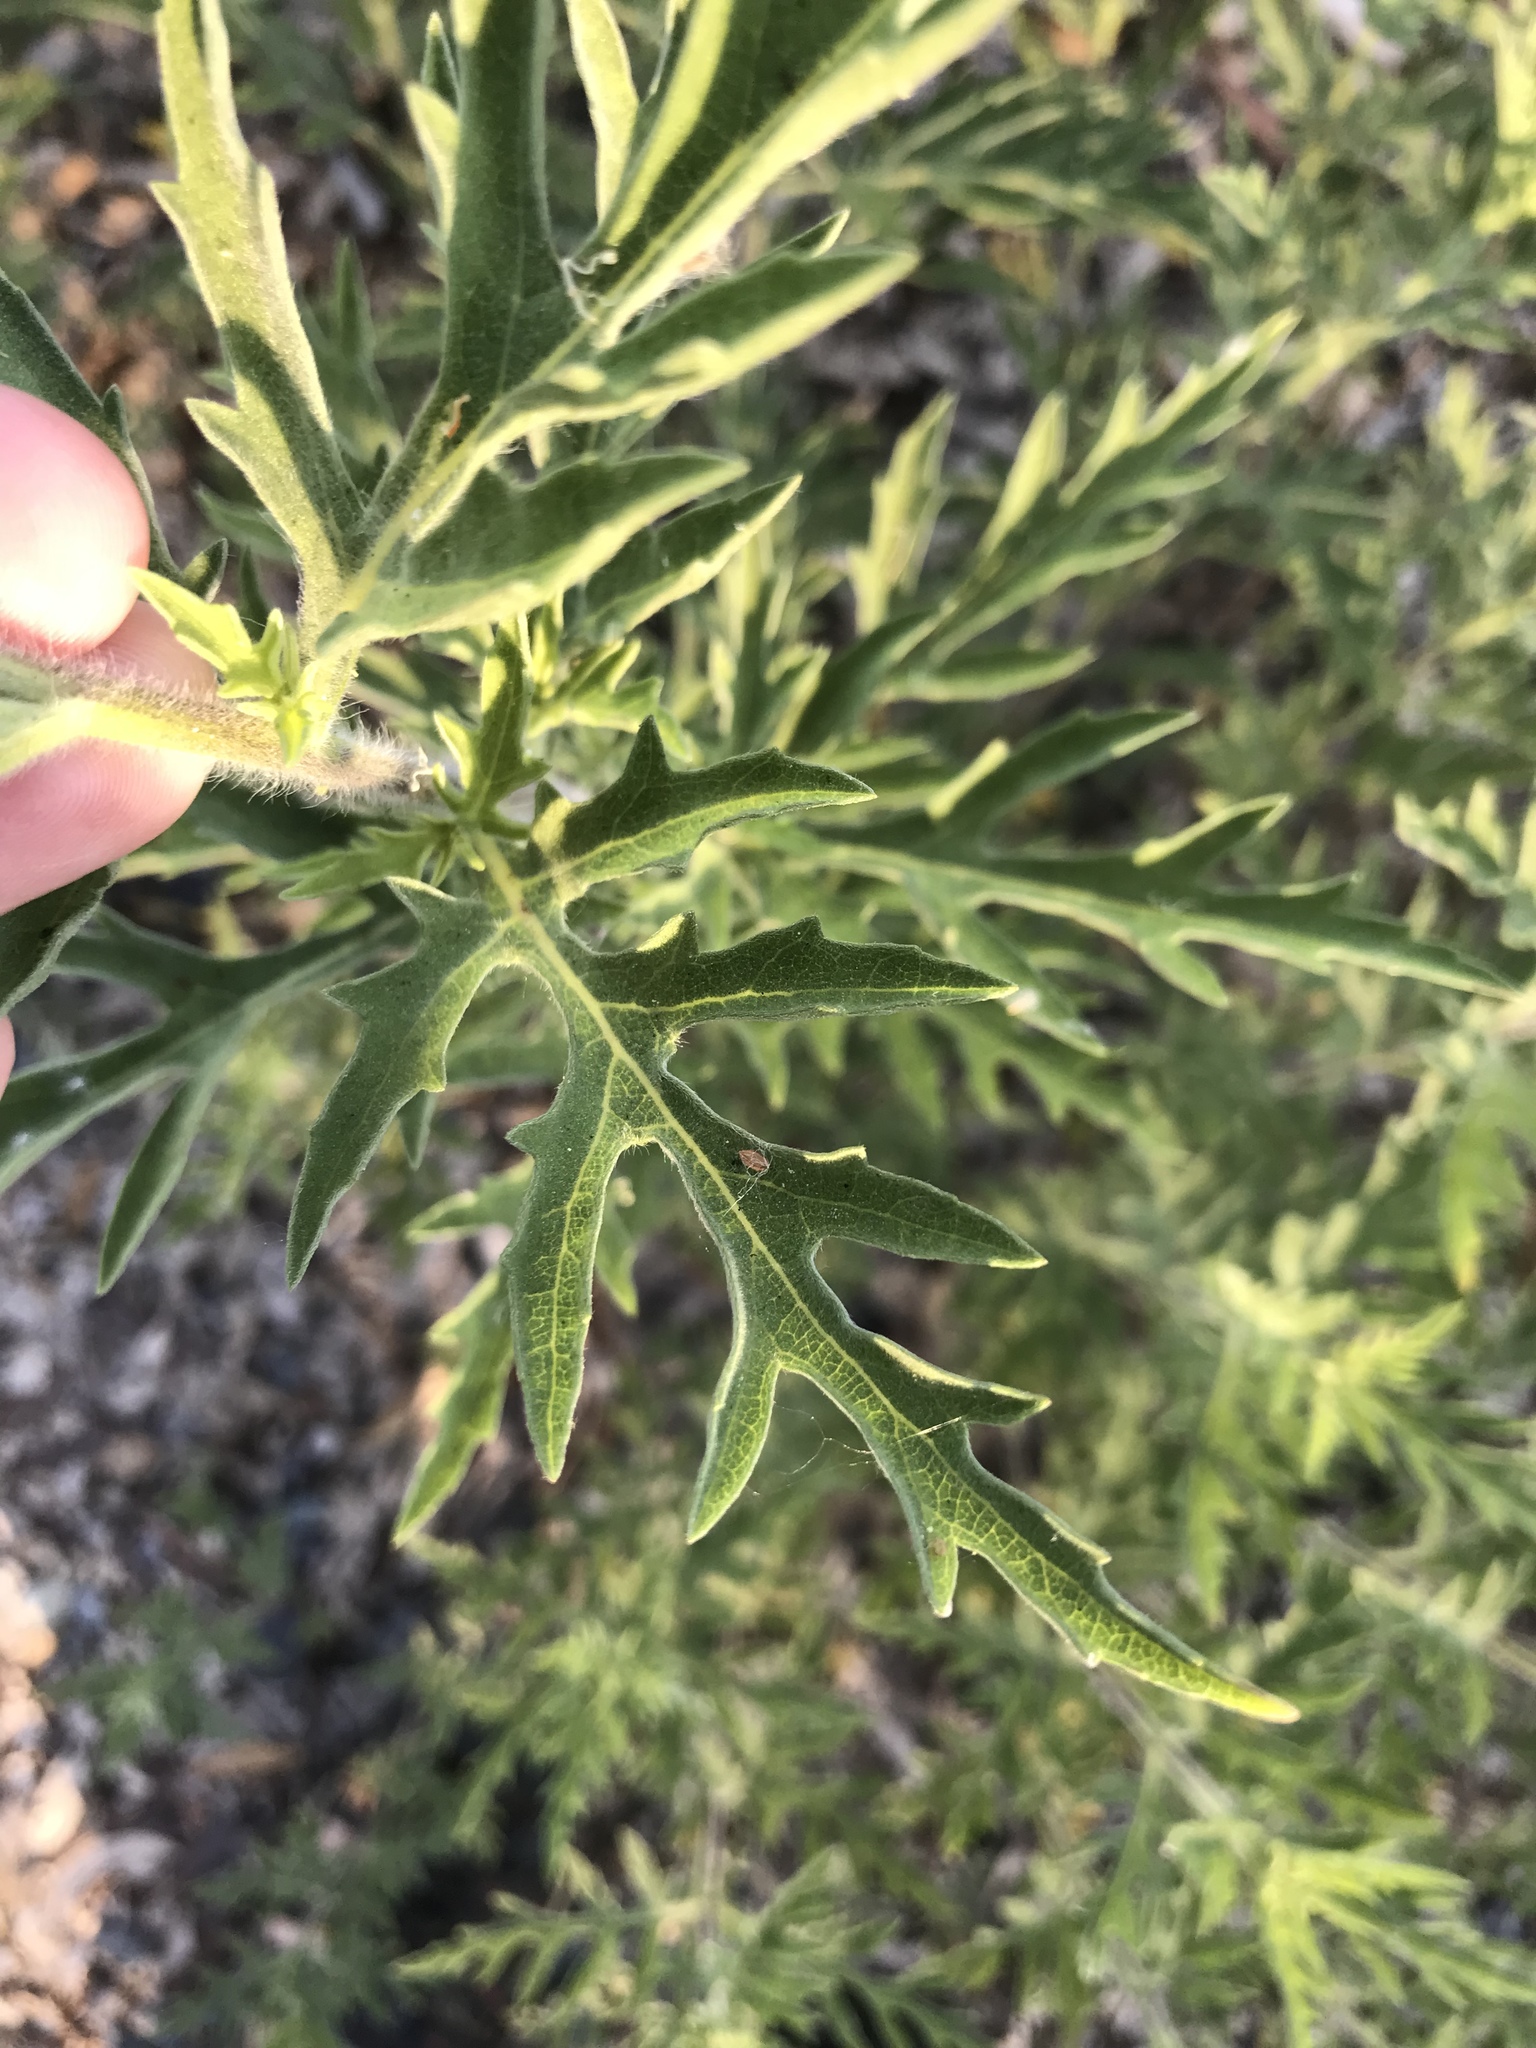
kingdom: Plantae
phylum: Tracheophyta
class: Magnoliopsida
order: Asterales
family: Asteraceae
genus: Ambrosia
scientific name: Ambrosia psilostachya
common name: Perennial ragweed
